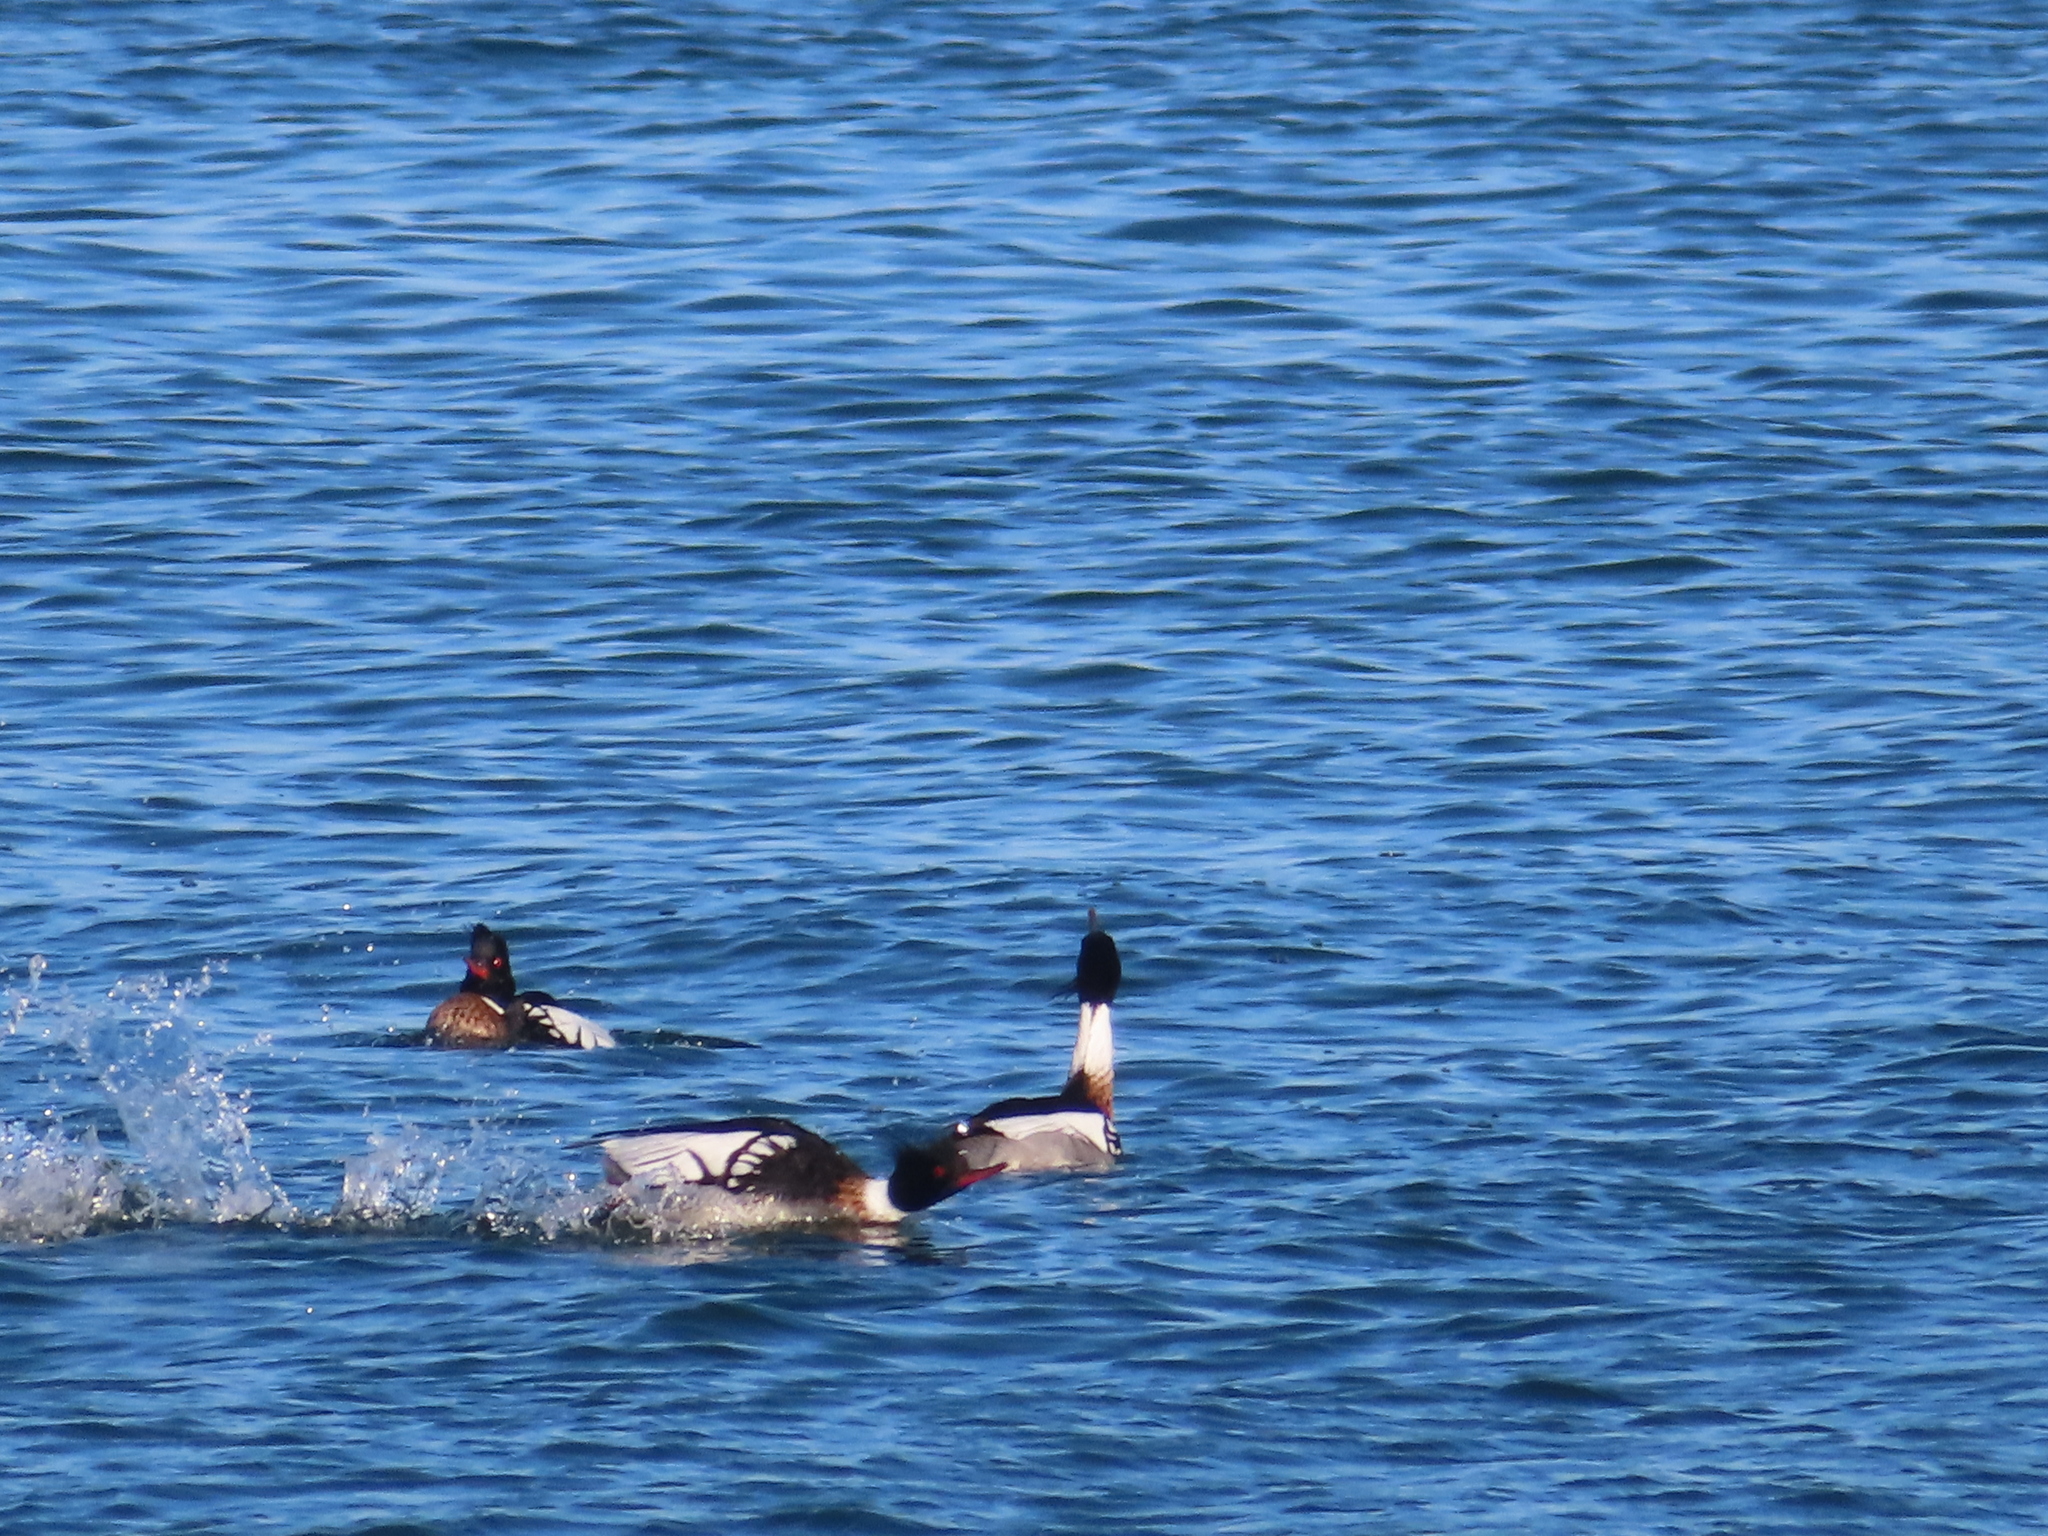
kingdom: Animalia
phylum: Chordata
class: Aves
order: Anseriformes
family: Anatidae
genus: Mergus
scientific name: Mergus serrator
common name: Red-breasted merganser
